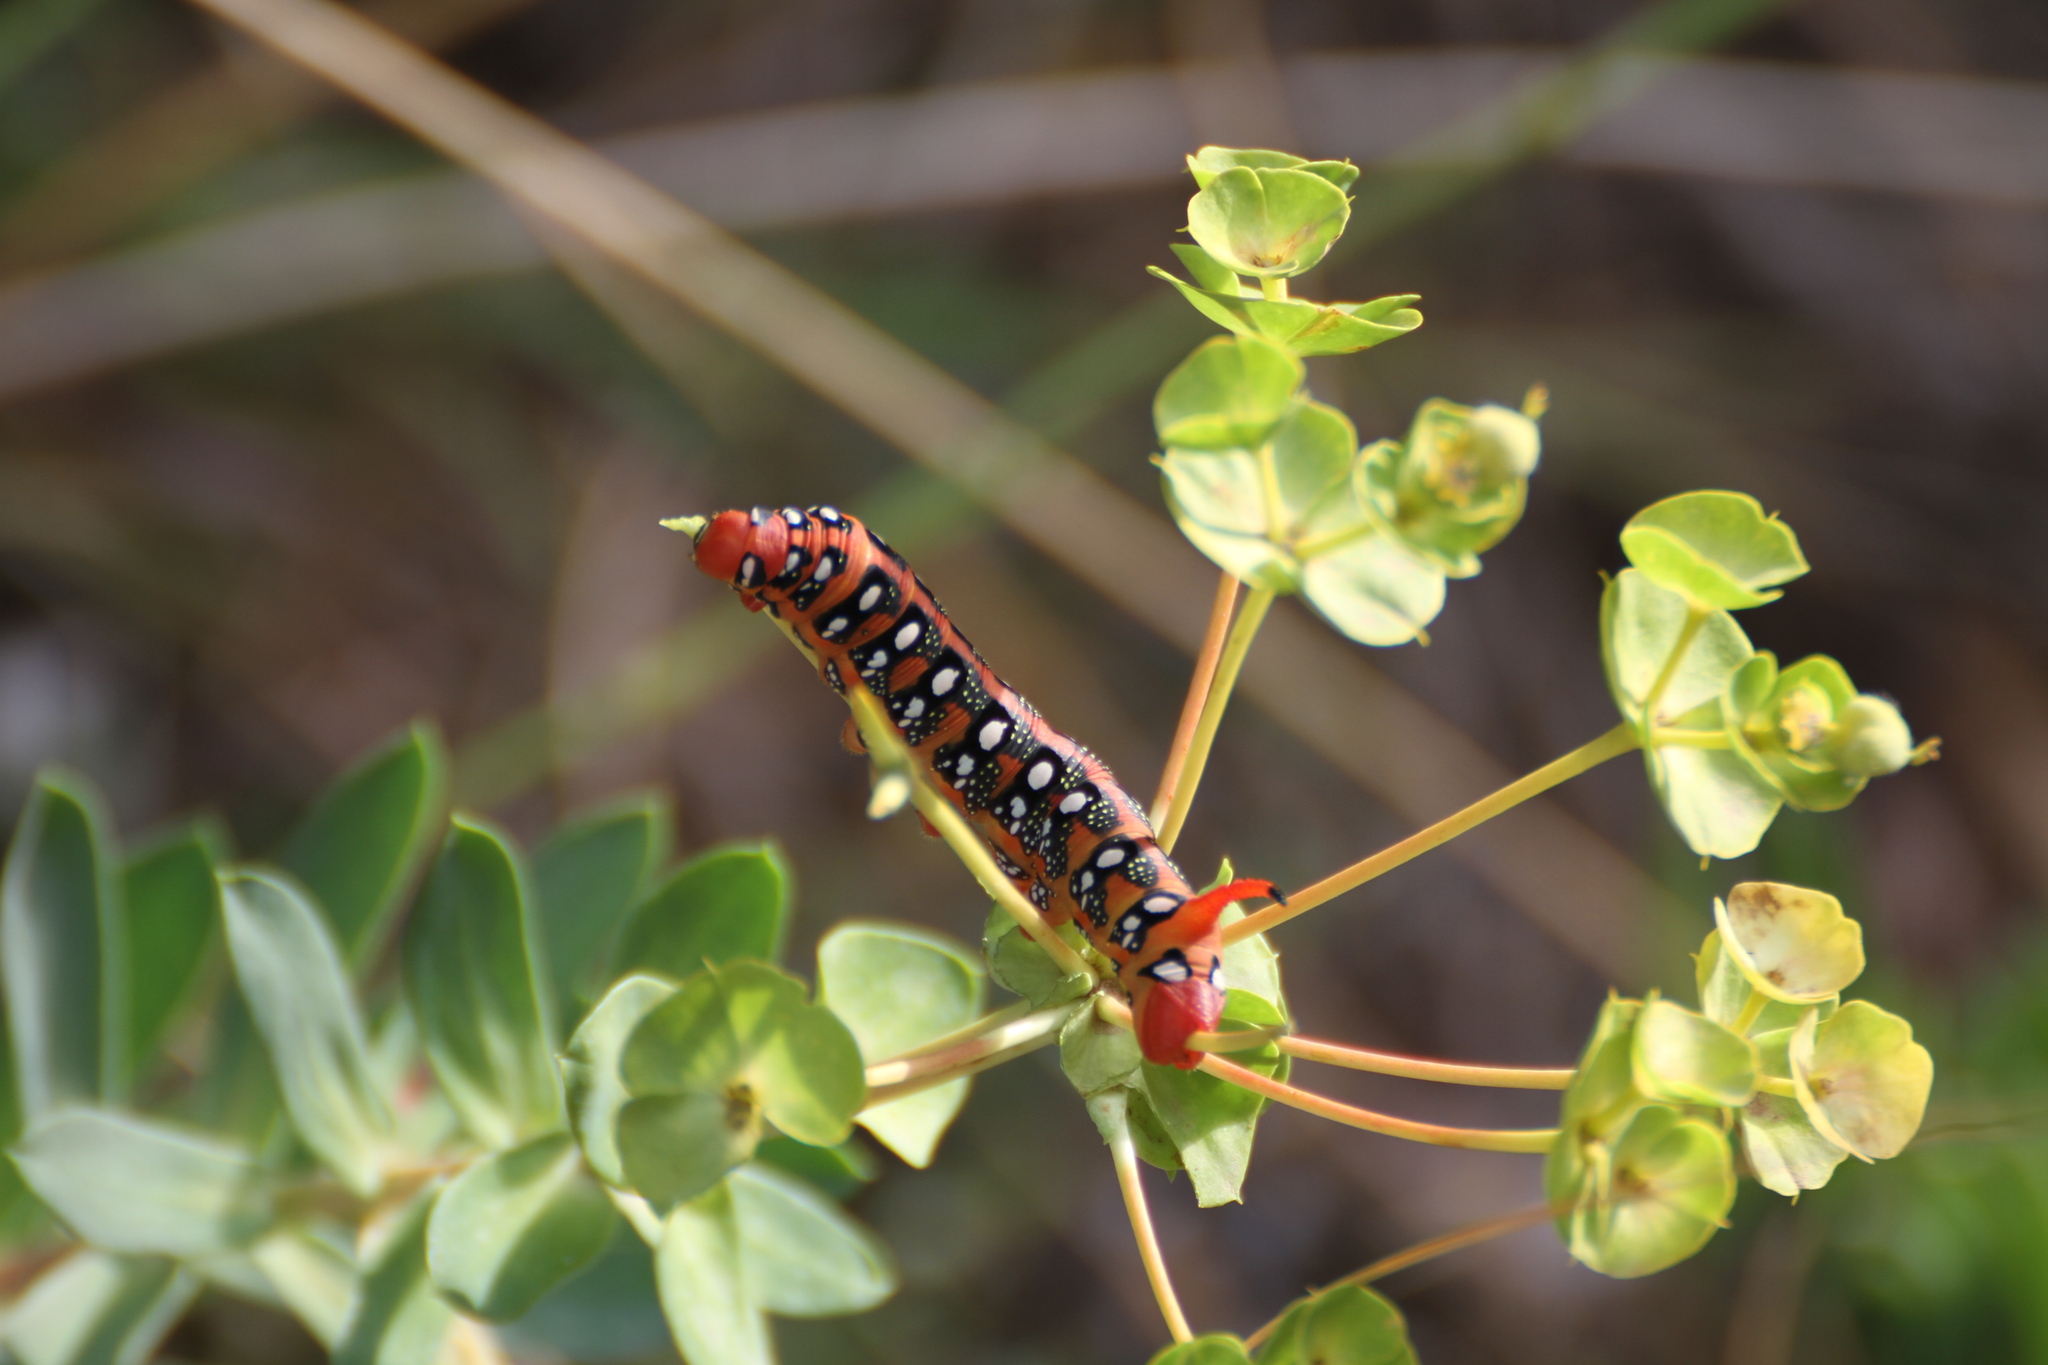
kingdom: Animalia
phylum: Arthropoda
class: Insecta
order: Lepidoptera
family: Sphingidae
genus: Hyles
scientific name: Hyles euphorbiae
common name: Spurge hawk-moth
